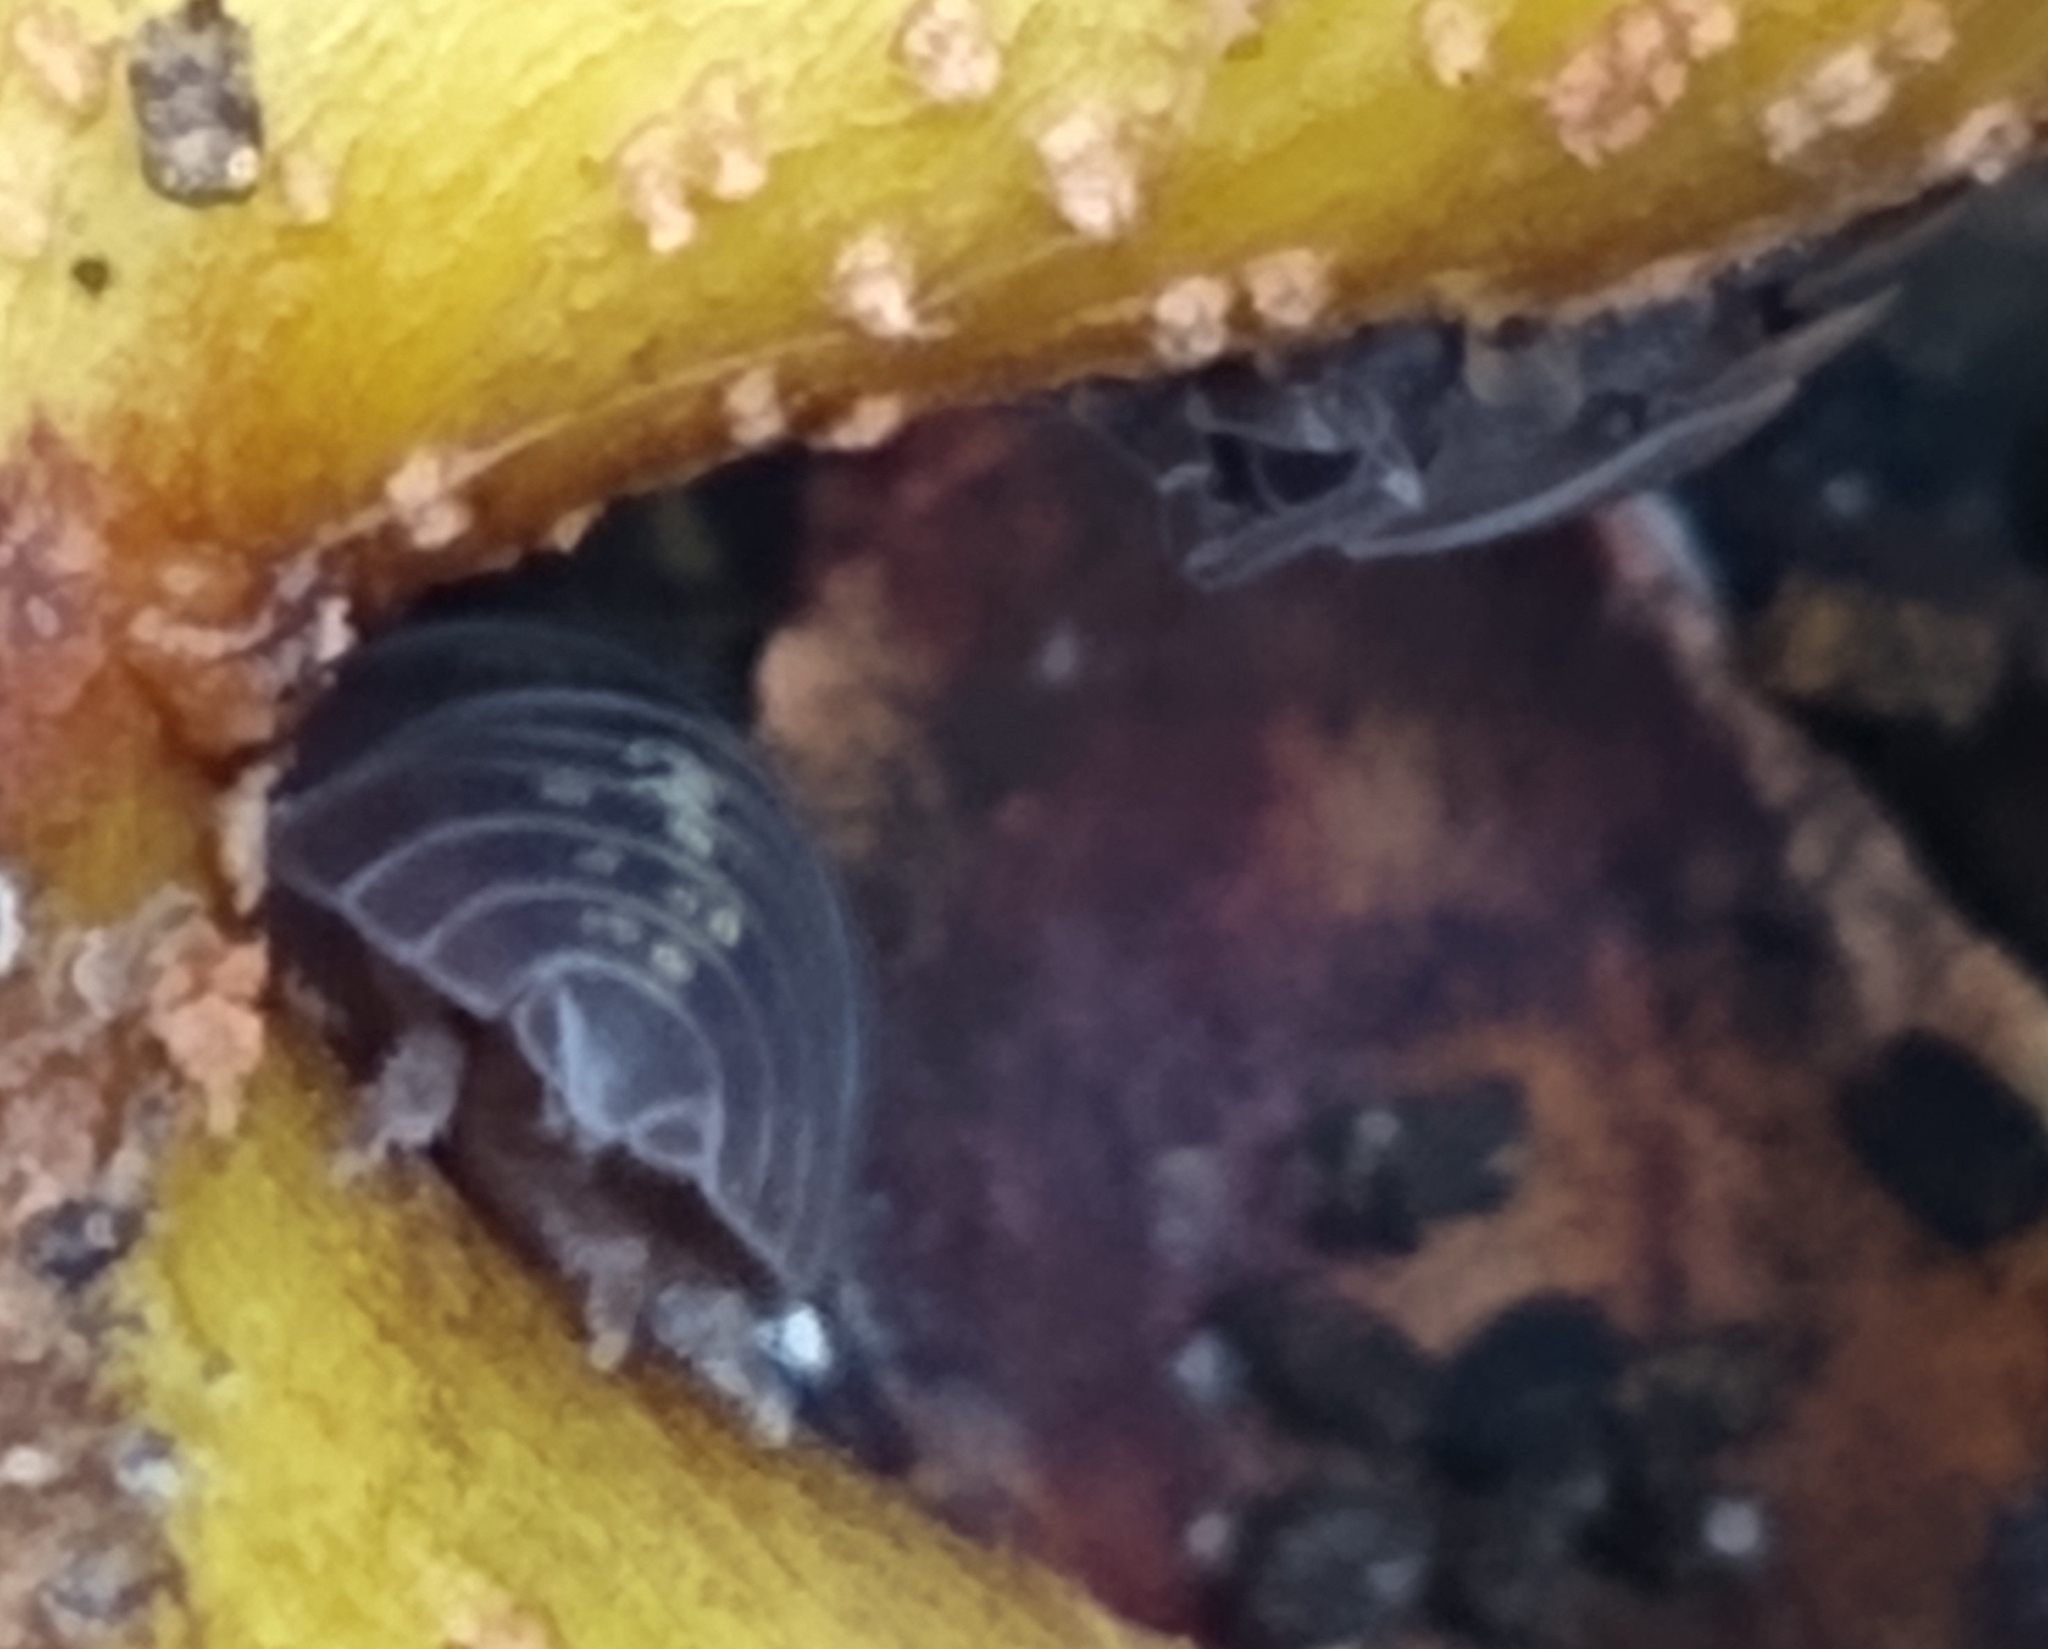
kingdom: Animalia
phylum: Arthropoda
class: Malacostraca
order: Isopoda
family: Armadillidiidae
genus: Armadillidium
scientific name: Armadillidium vulgare
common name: Common pill woodlouse
